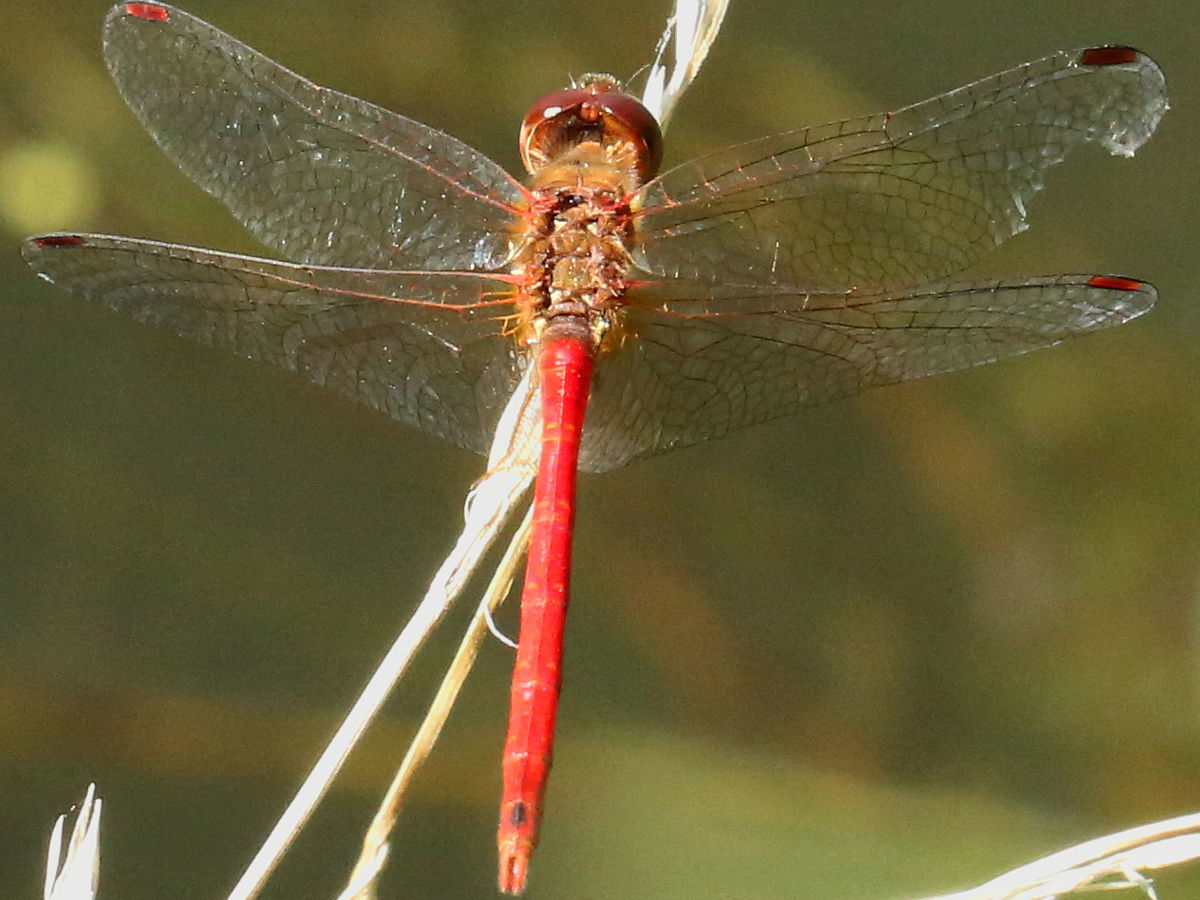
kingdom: Animalia
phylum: Arthropoda
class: Insecta
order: Odonata
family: Libellulidae
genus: Sympetrum
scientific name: Sympetrum vicinum
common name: Autumn meadowhawk
